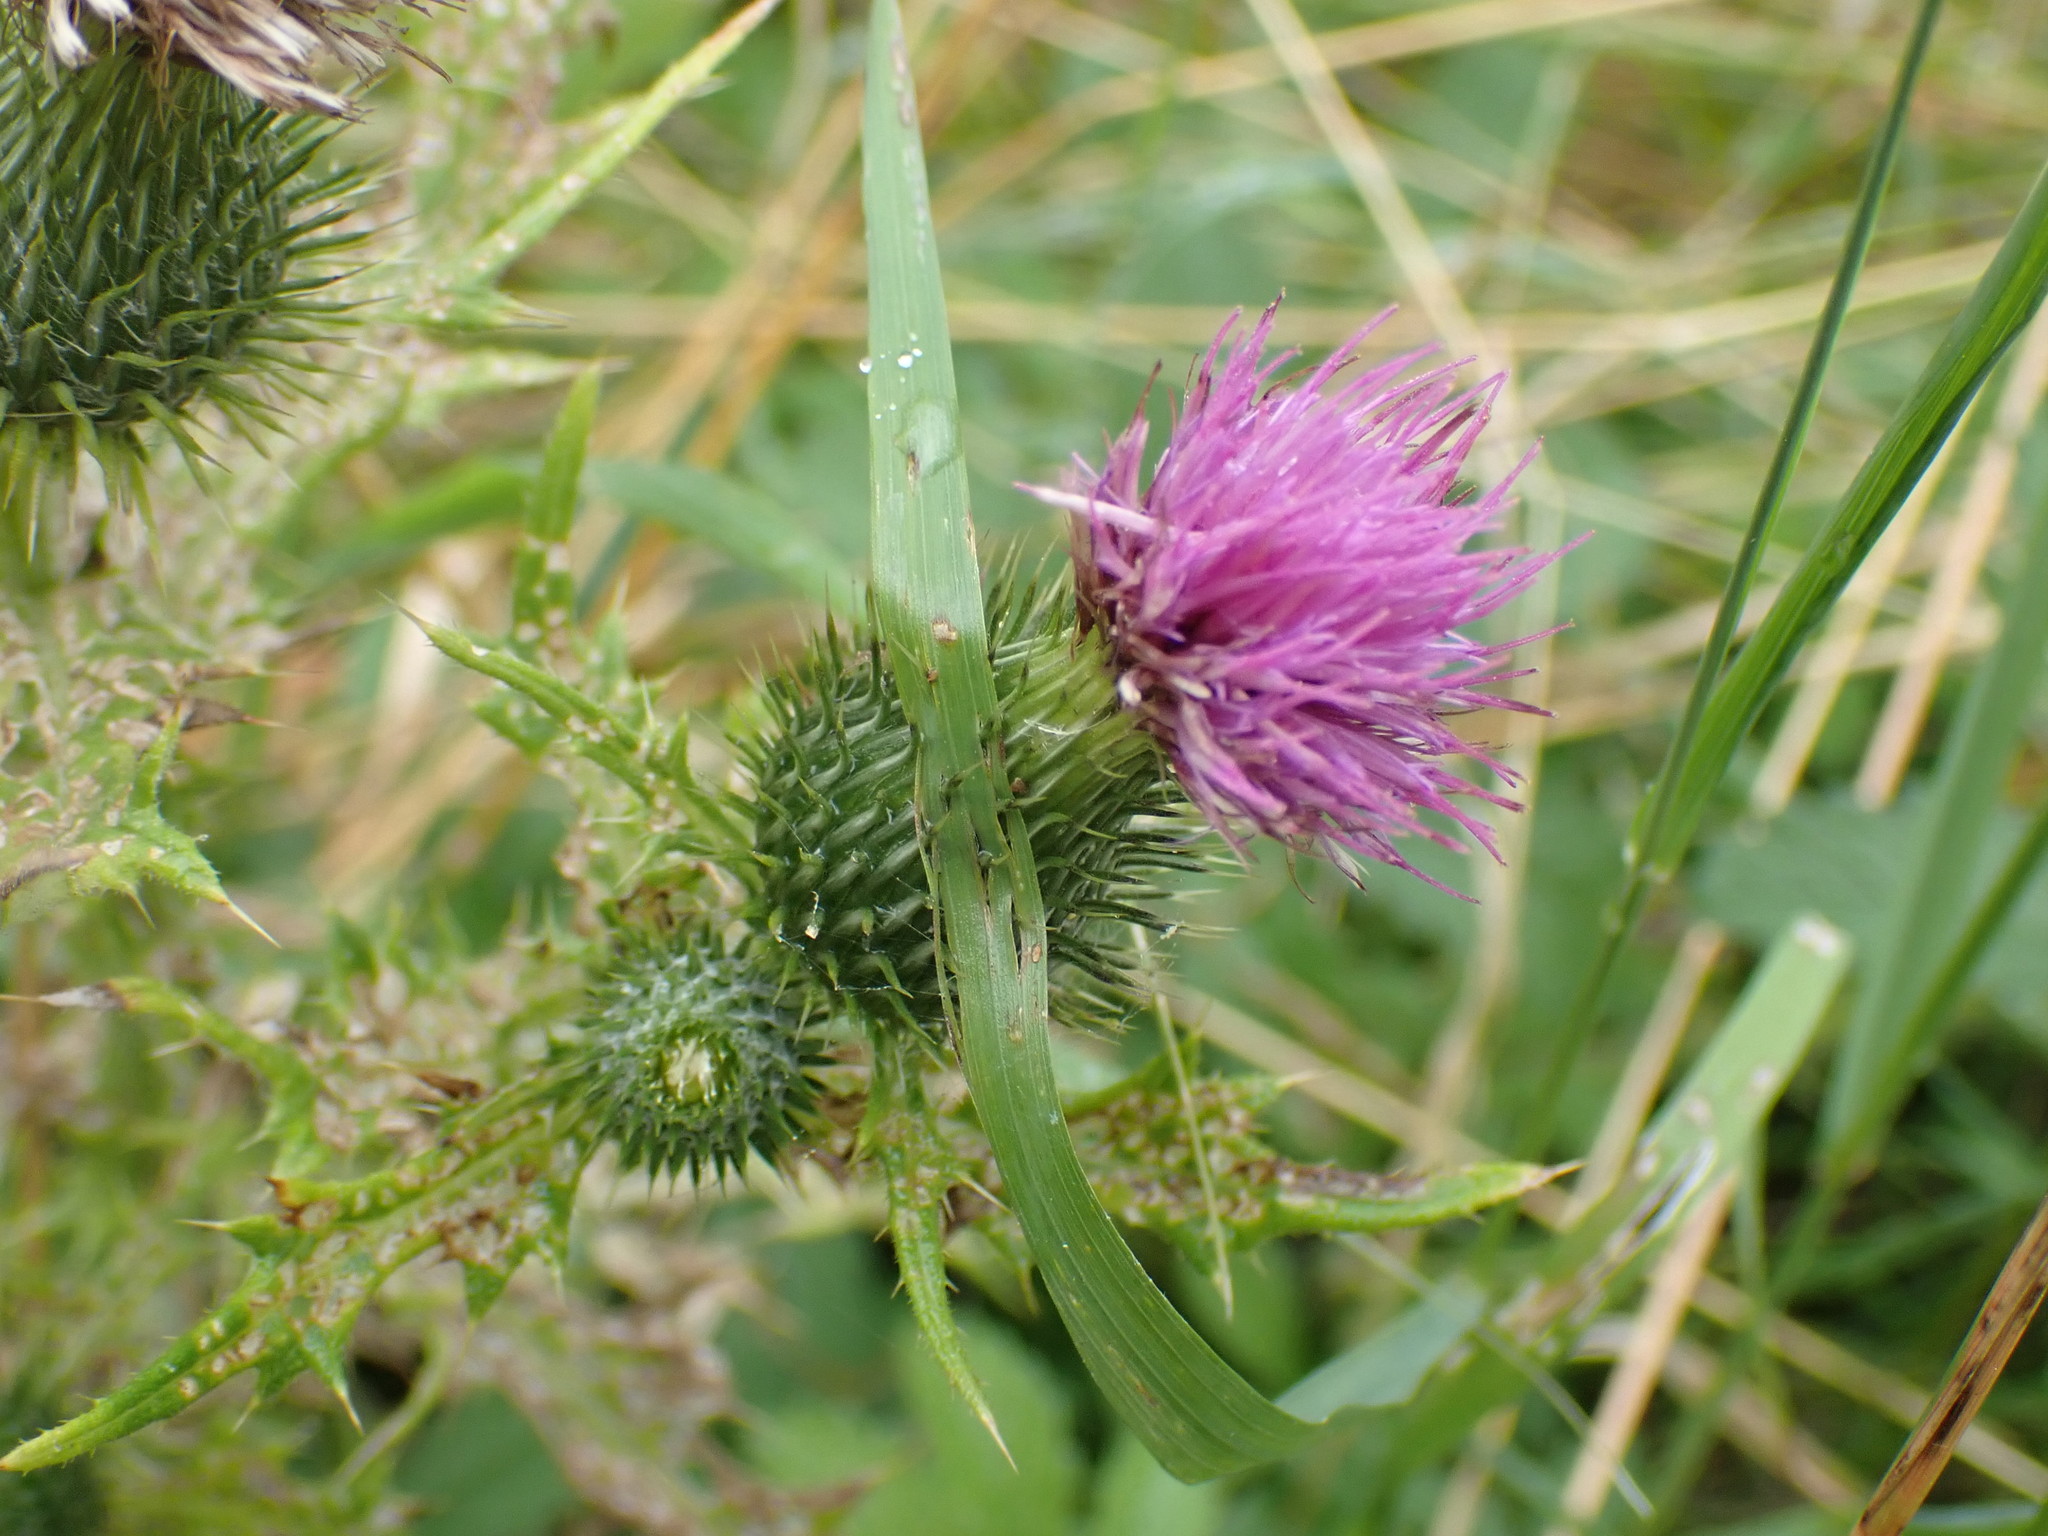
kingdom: Plantae
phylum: Tracheophyta
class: Magnoliopsida
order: Asterales
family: Asteraceae
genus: Cirsium
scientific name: Cirsium vulgare
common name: Bull thistle
